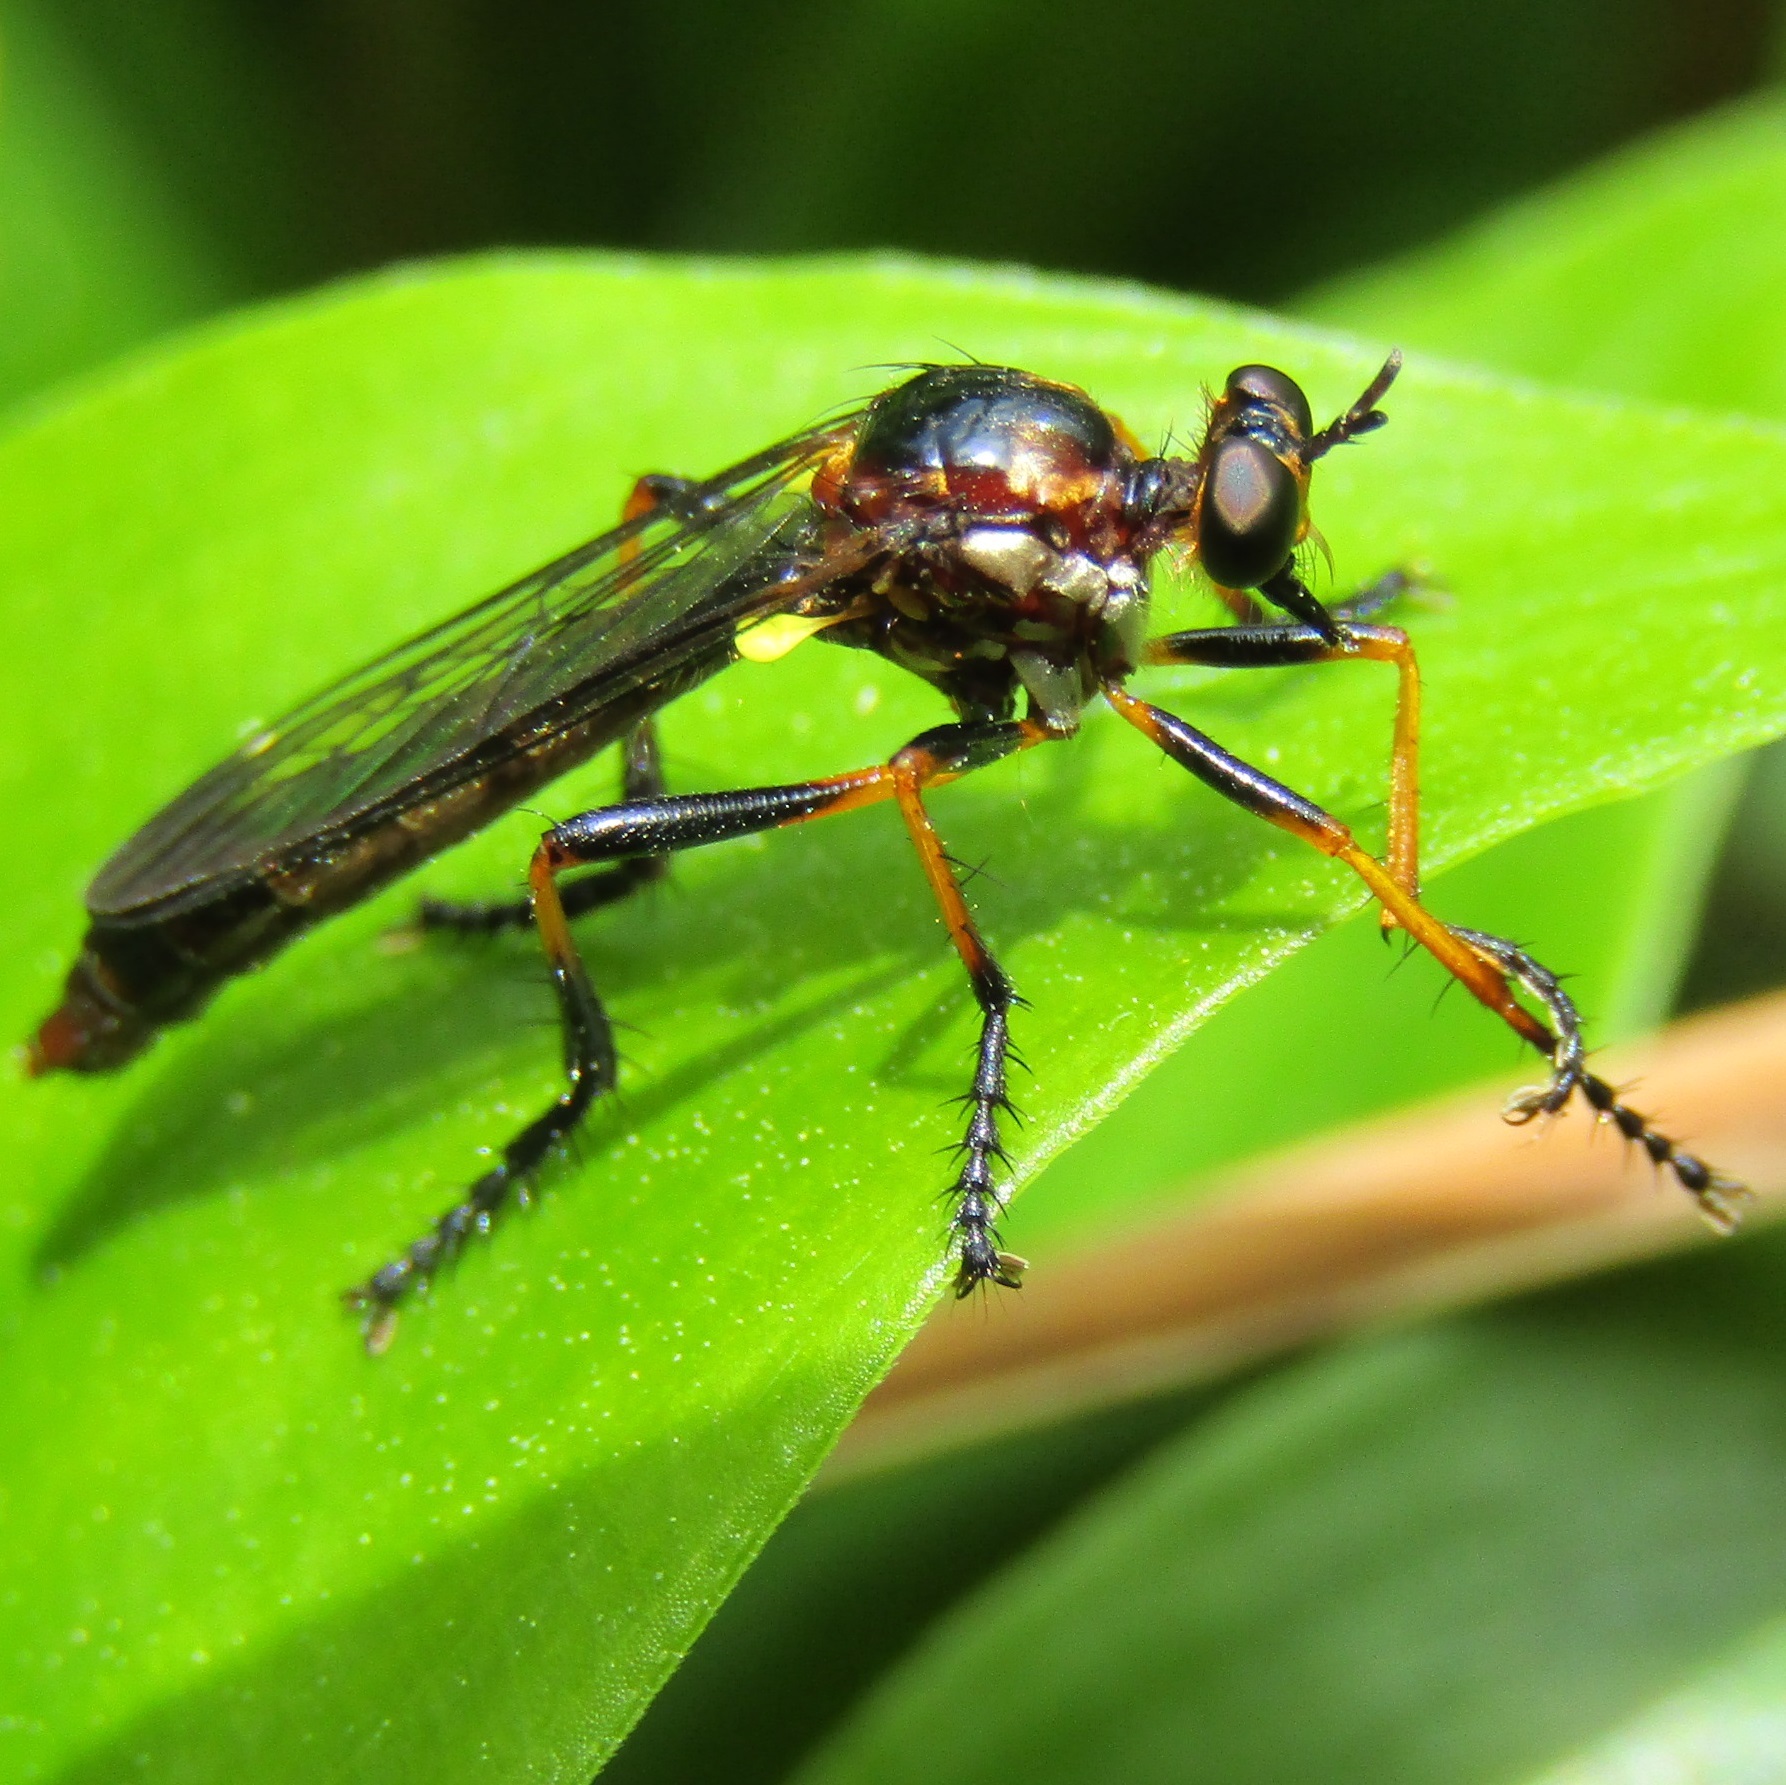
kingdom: Animalia
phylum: Arthropoda
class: Insecta
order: Diptera
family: Asilidae
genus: Saropogon
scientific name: Saropogon fascipes
